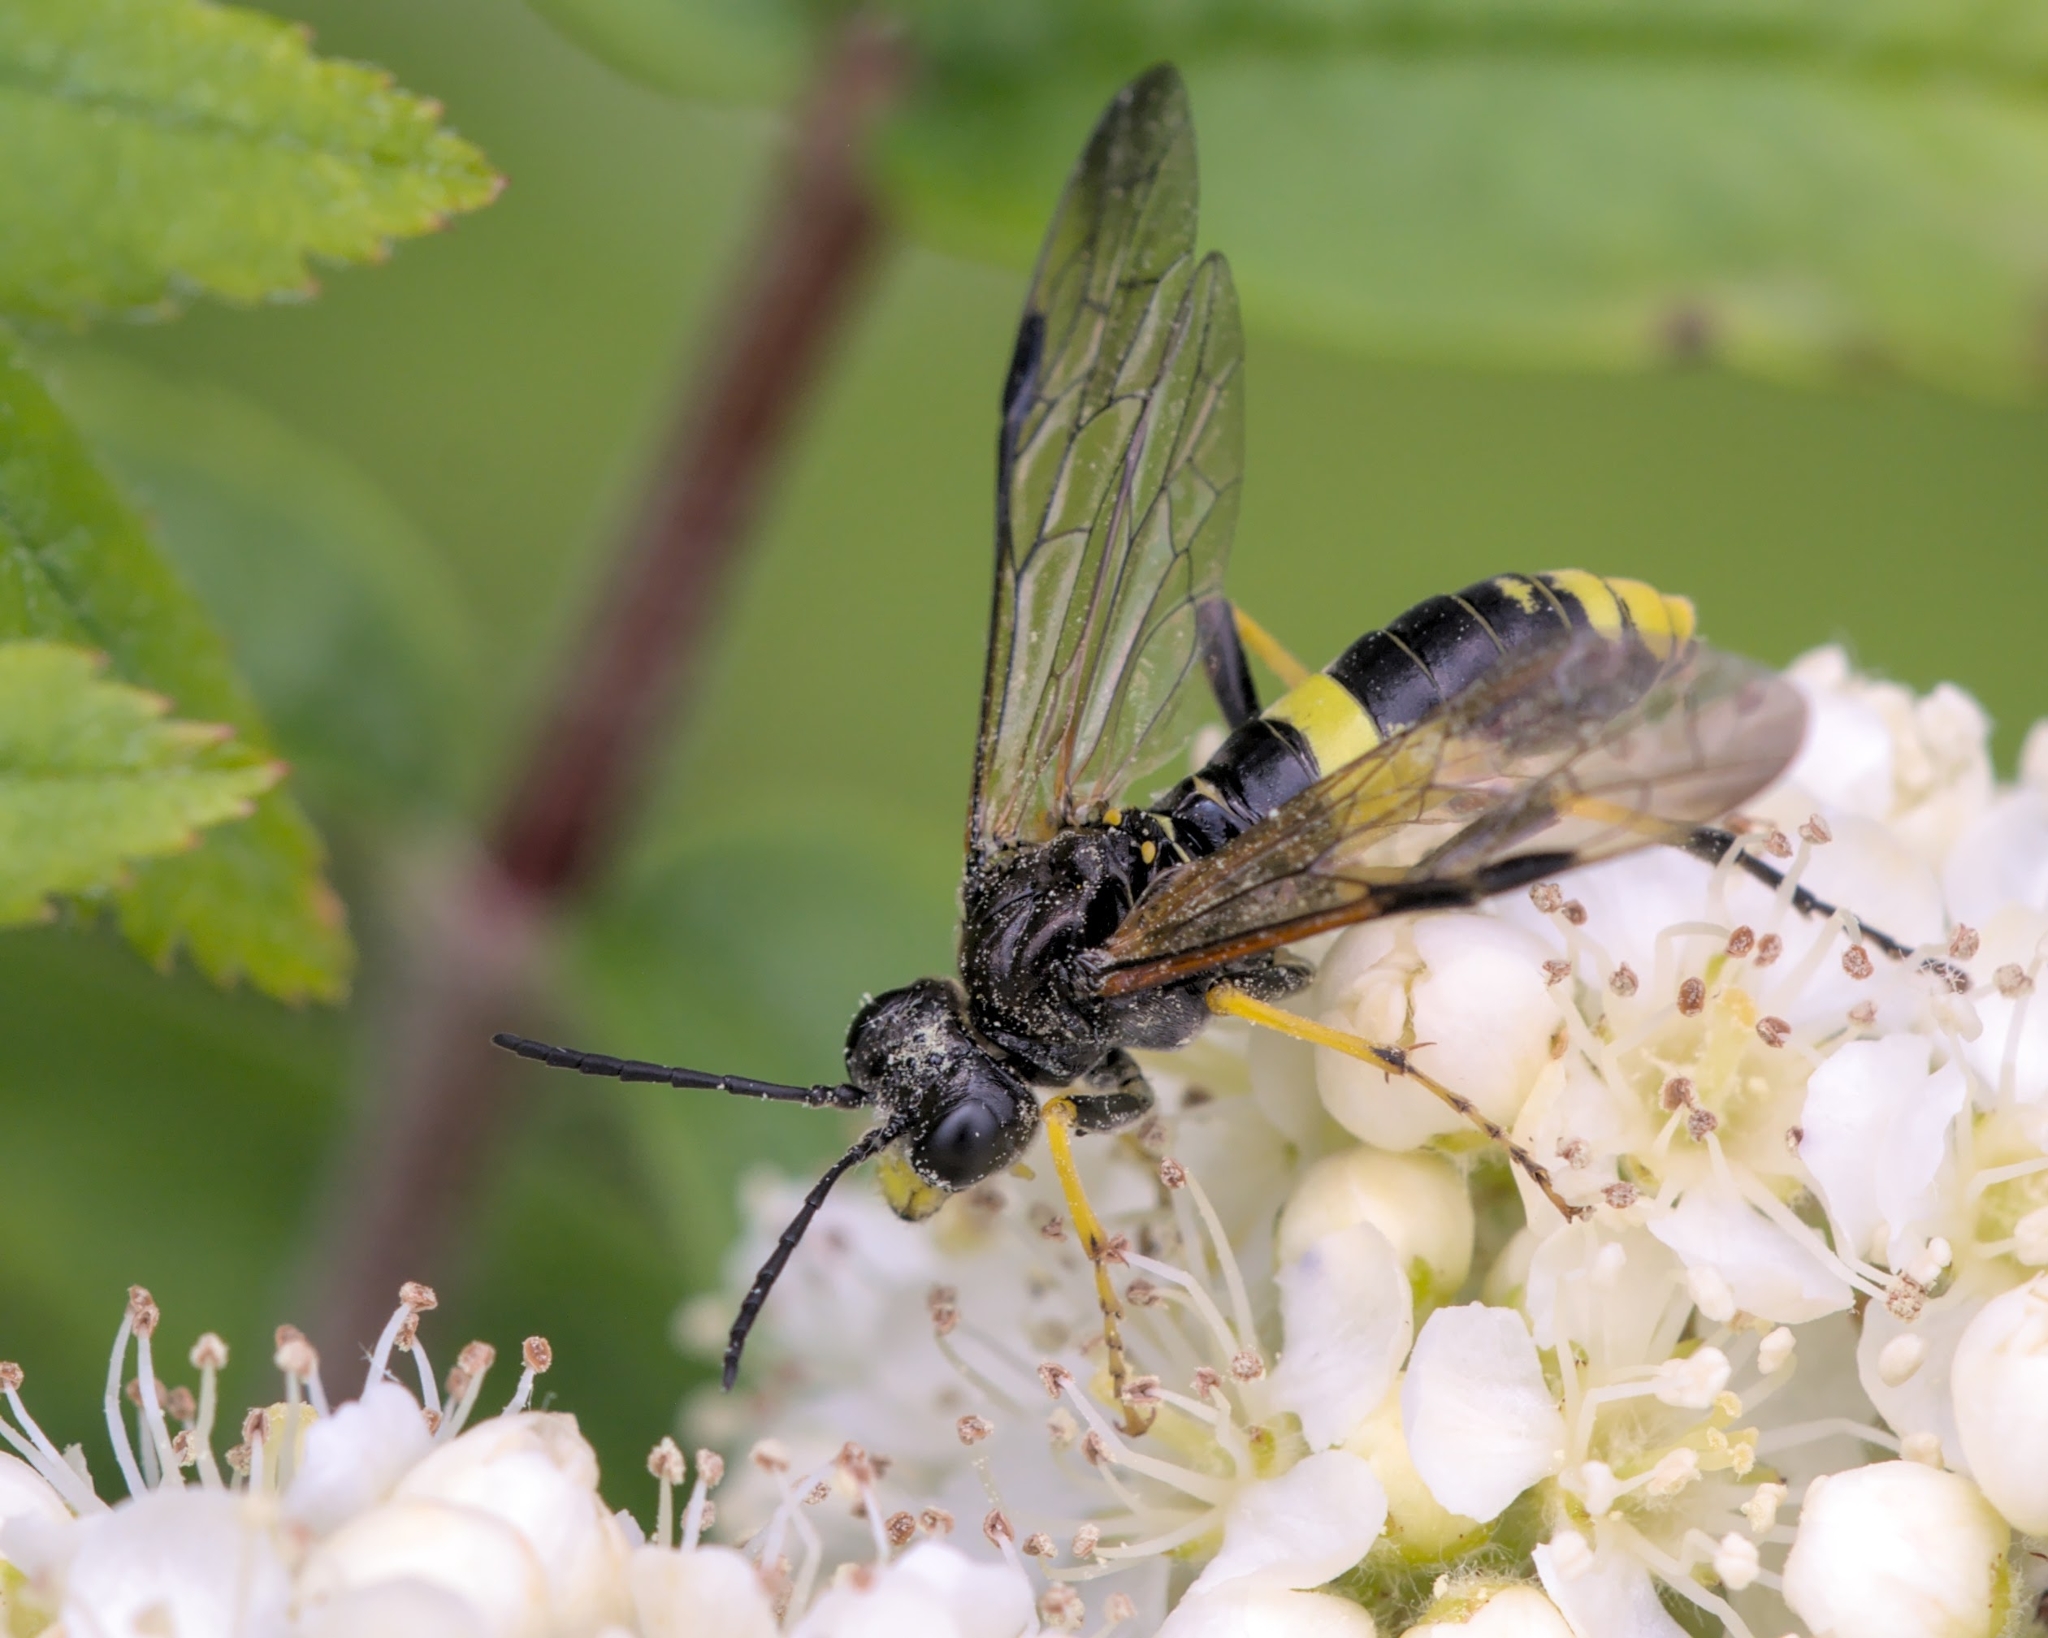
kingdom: Animalia
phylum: Arthropoda
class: Insecta
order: Hymenoptera
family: Tenthredinidae
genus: Tenthredo
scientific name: Tenthredo temula
